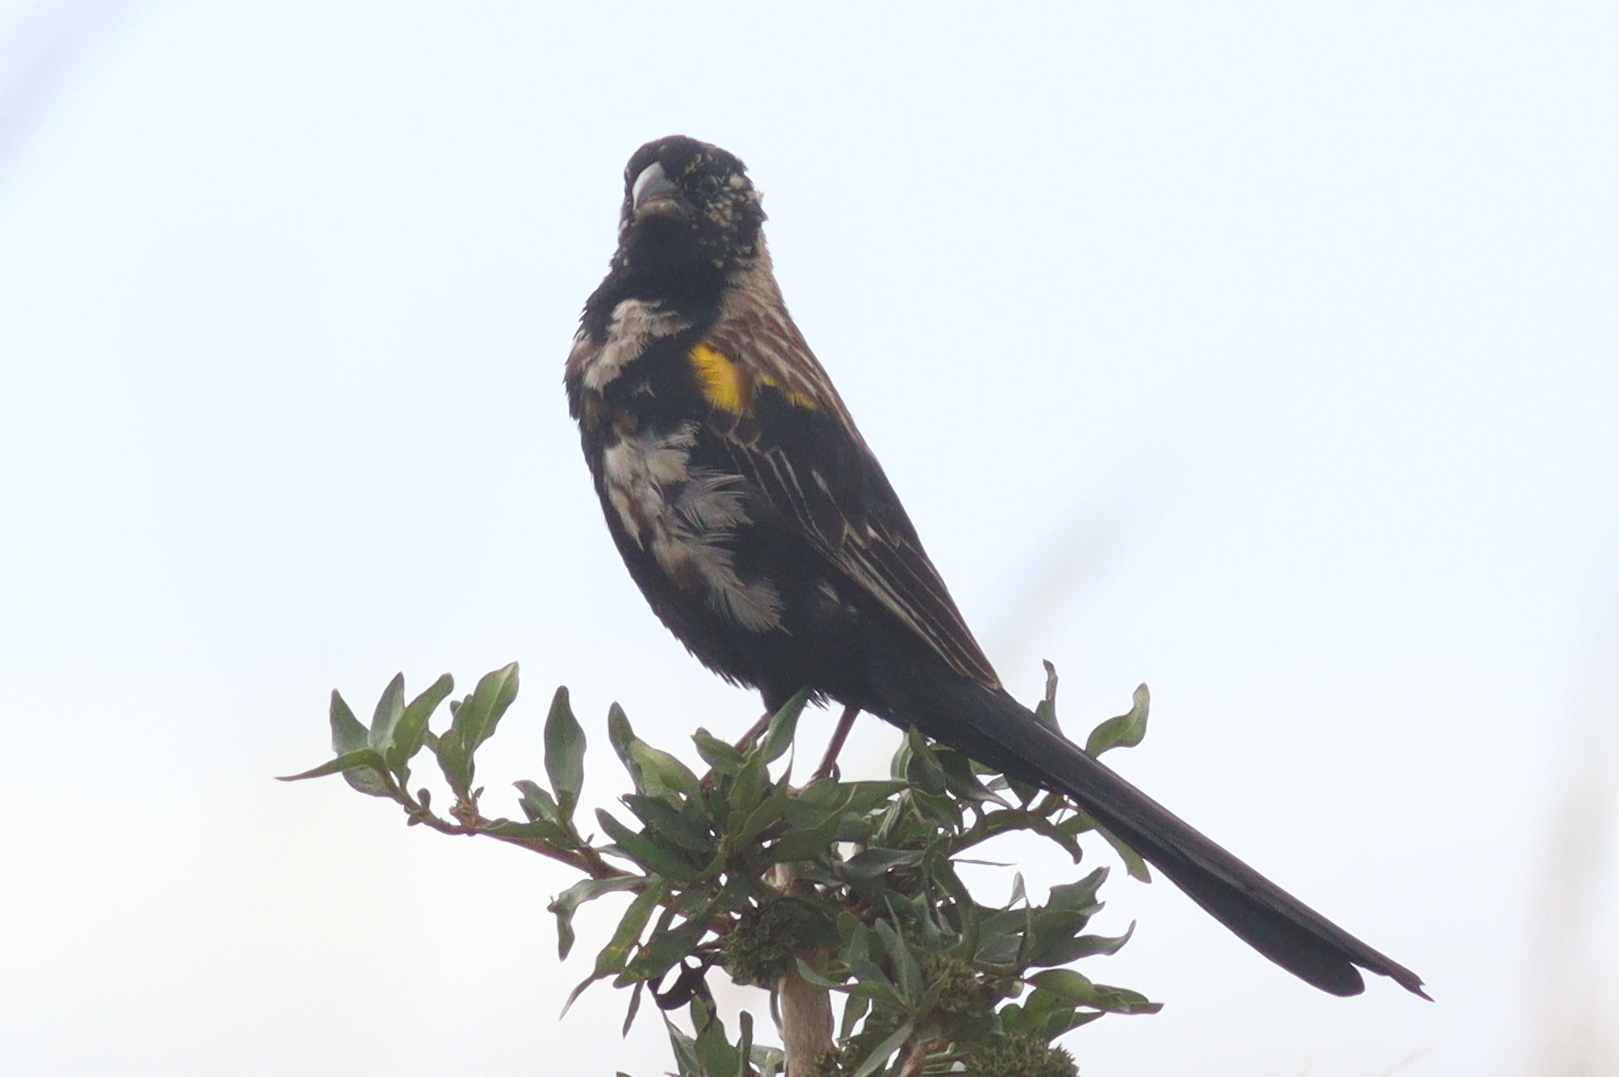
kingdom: Animalia
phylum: Chordata
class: Aves
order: Passeriformes
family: Ploceidae
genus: Euplectes
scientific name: Euplectes macroura
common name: Yellow-mantled widowbird
